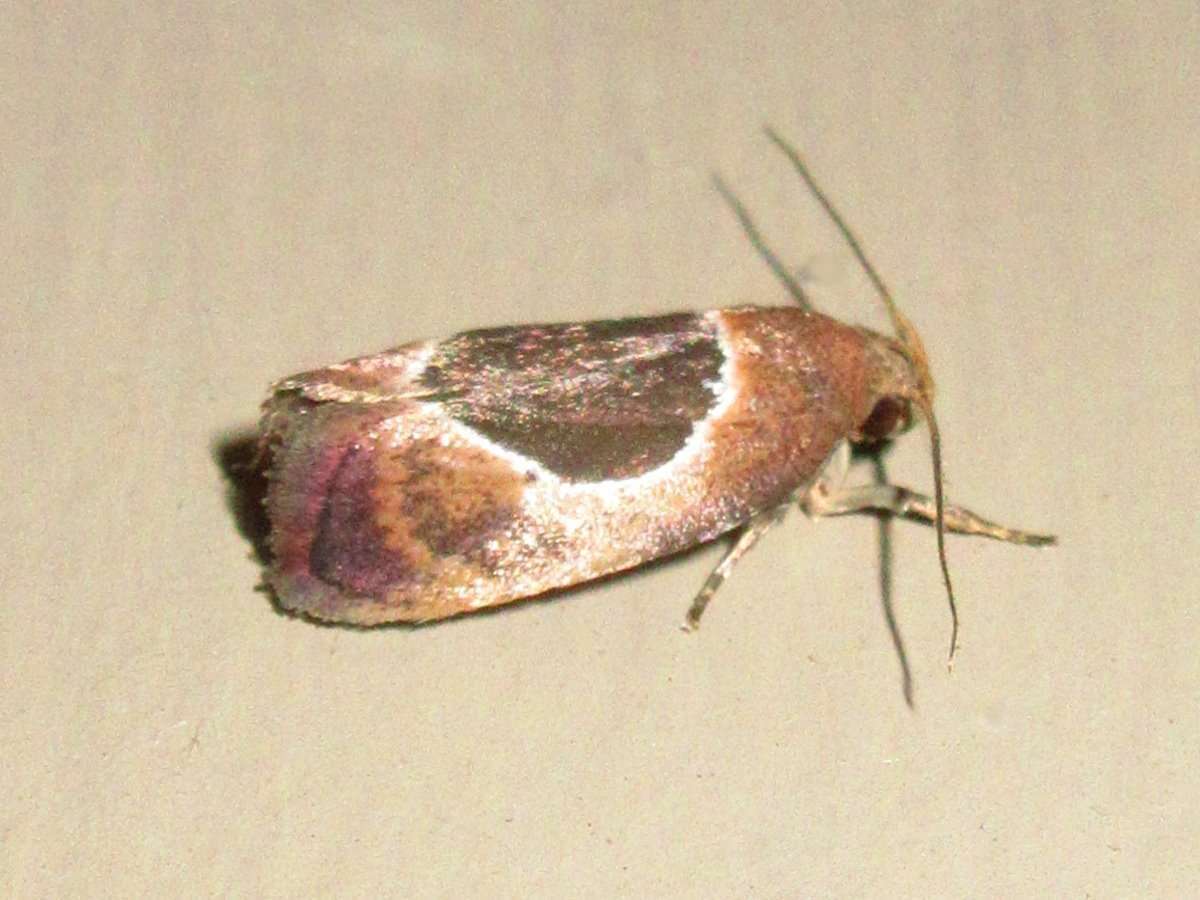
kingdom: Animalia
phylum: Arthropoda
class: Insecta
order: Lepidoptera
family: Oecophoridae
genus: Hoplomorpha
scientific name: Hoplomorpha abalienella
